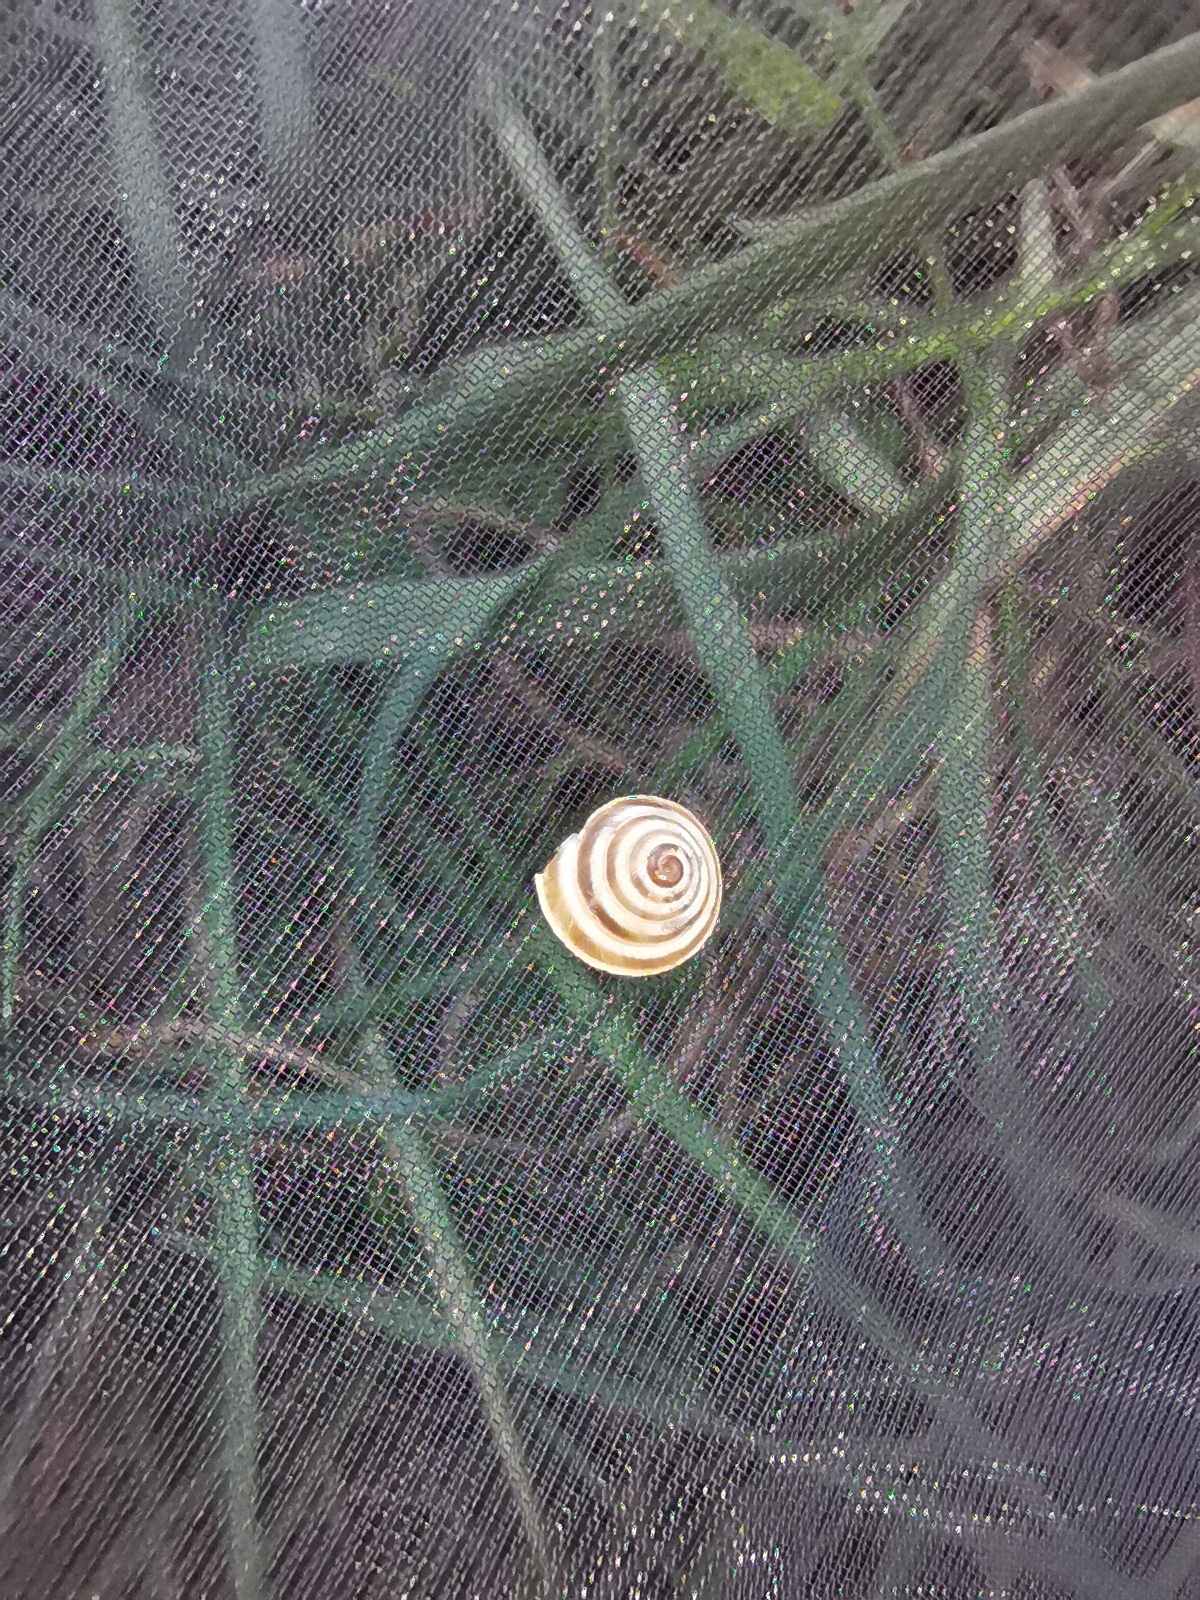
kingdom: Animalia
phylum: Mollusca
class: Gastropoda
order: Stylommatophora
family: Geomitridae
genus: Trochoidea
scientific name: Trochoidea elegans
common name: Elegant helicellid
